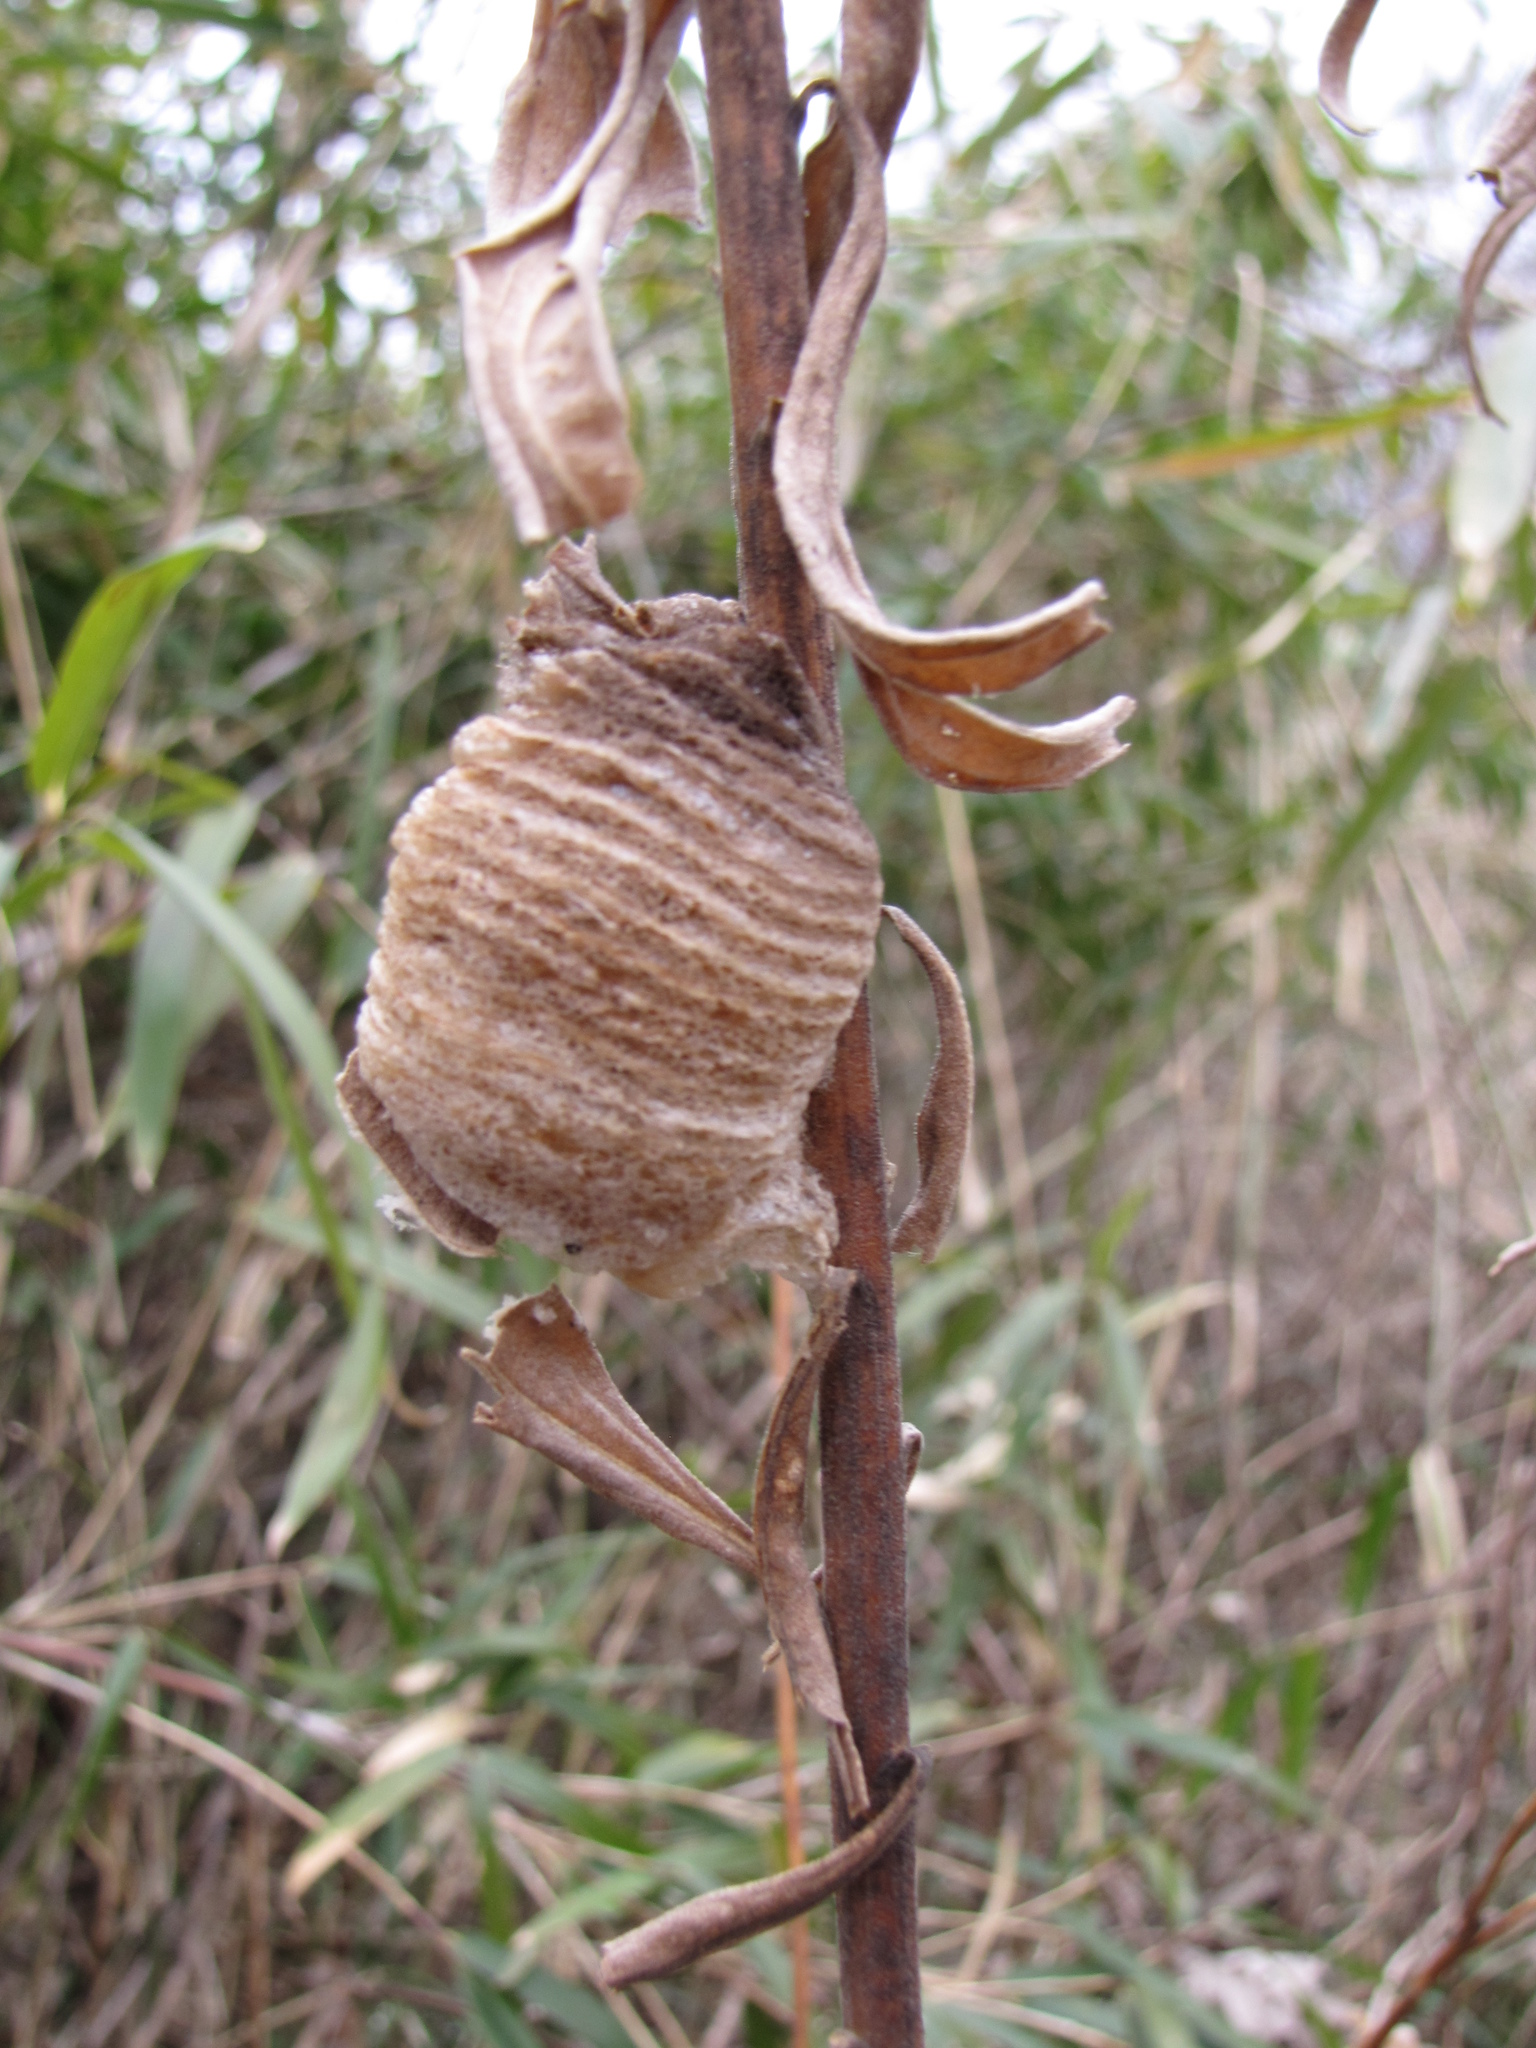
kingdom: Animalia
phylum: Arthropoda
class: Insecta
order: Mantodea
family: Mantidae
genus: Tenodera
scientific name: Tenodera sinensis
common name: Chinese mantis
